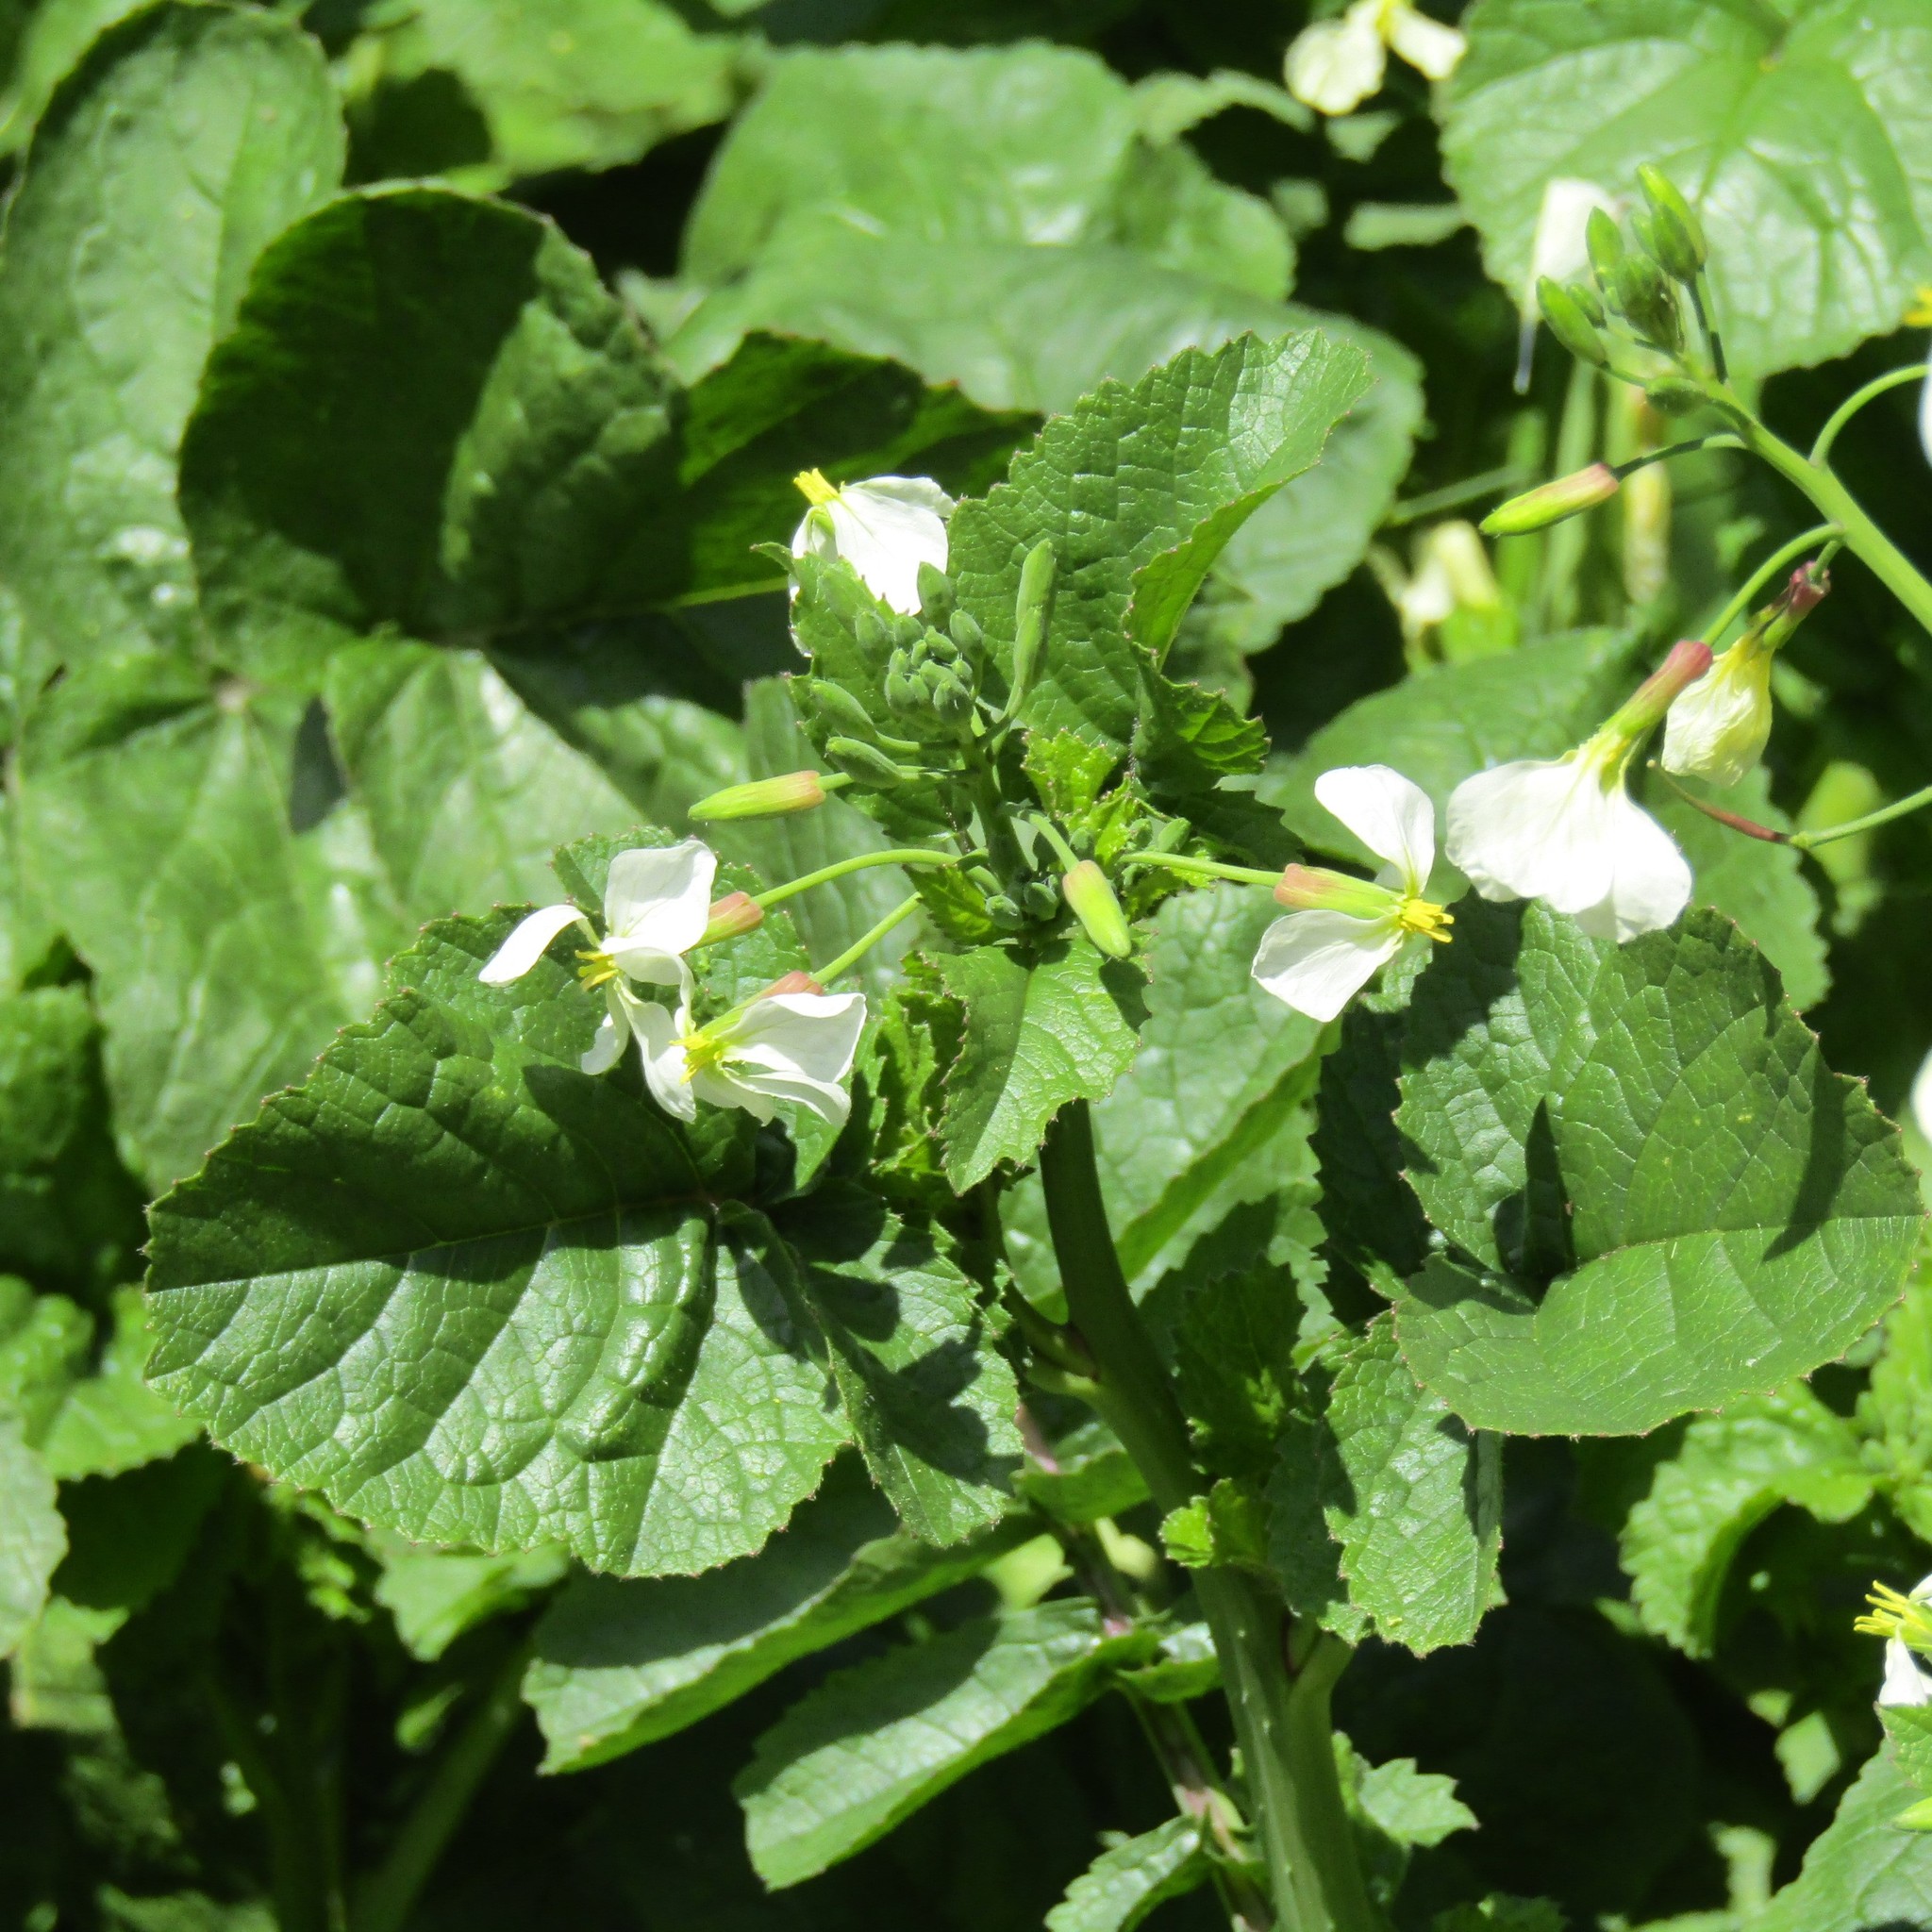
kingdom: Plantae
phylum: Tracheophyta
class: Magnoliopsida
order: Brassicales
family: Brassicaceae
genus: Raphanus
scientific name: Raphanus raphanistrum
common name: Wild radish
